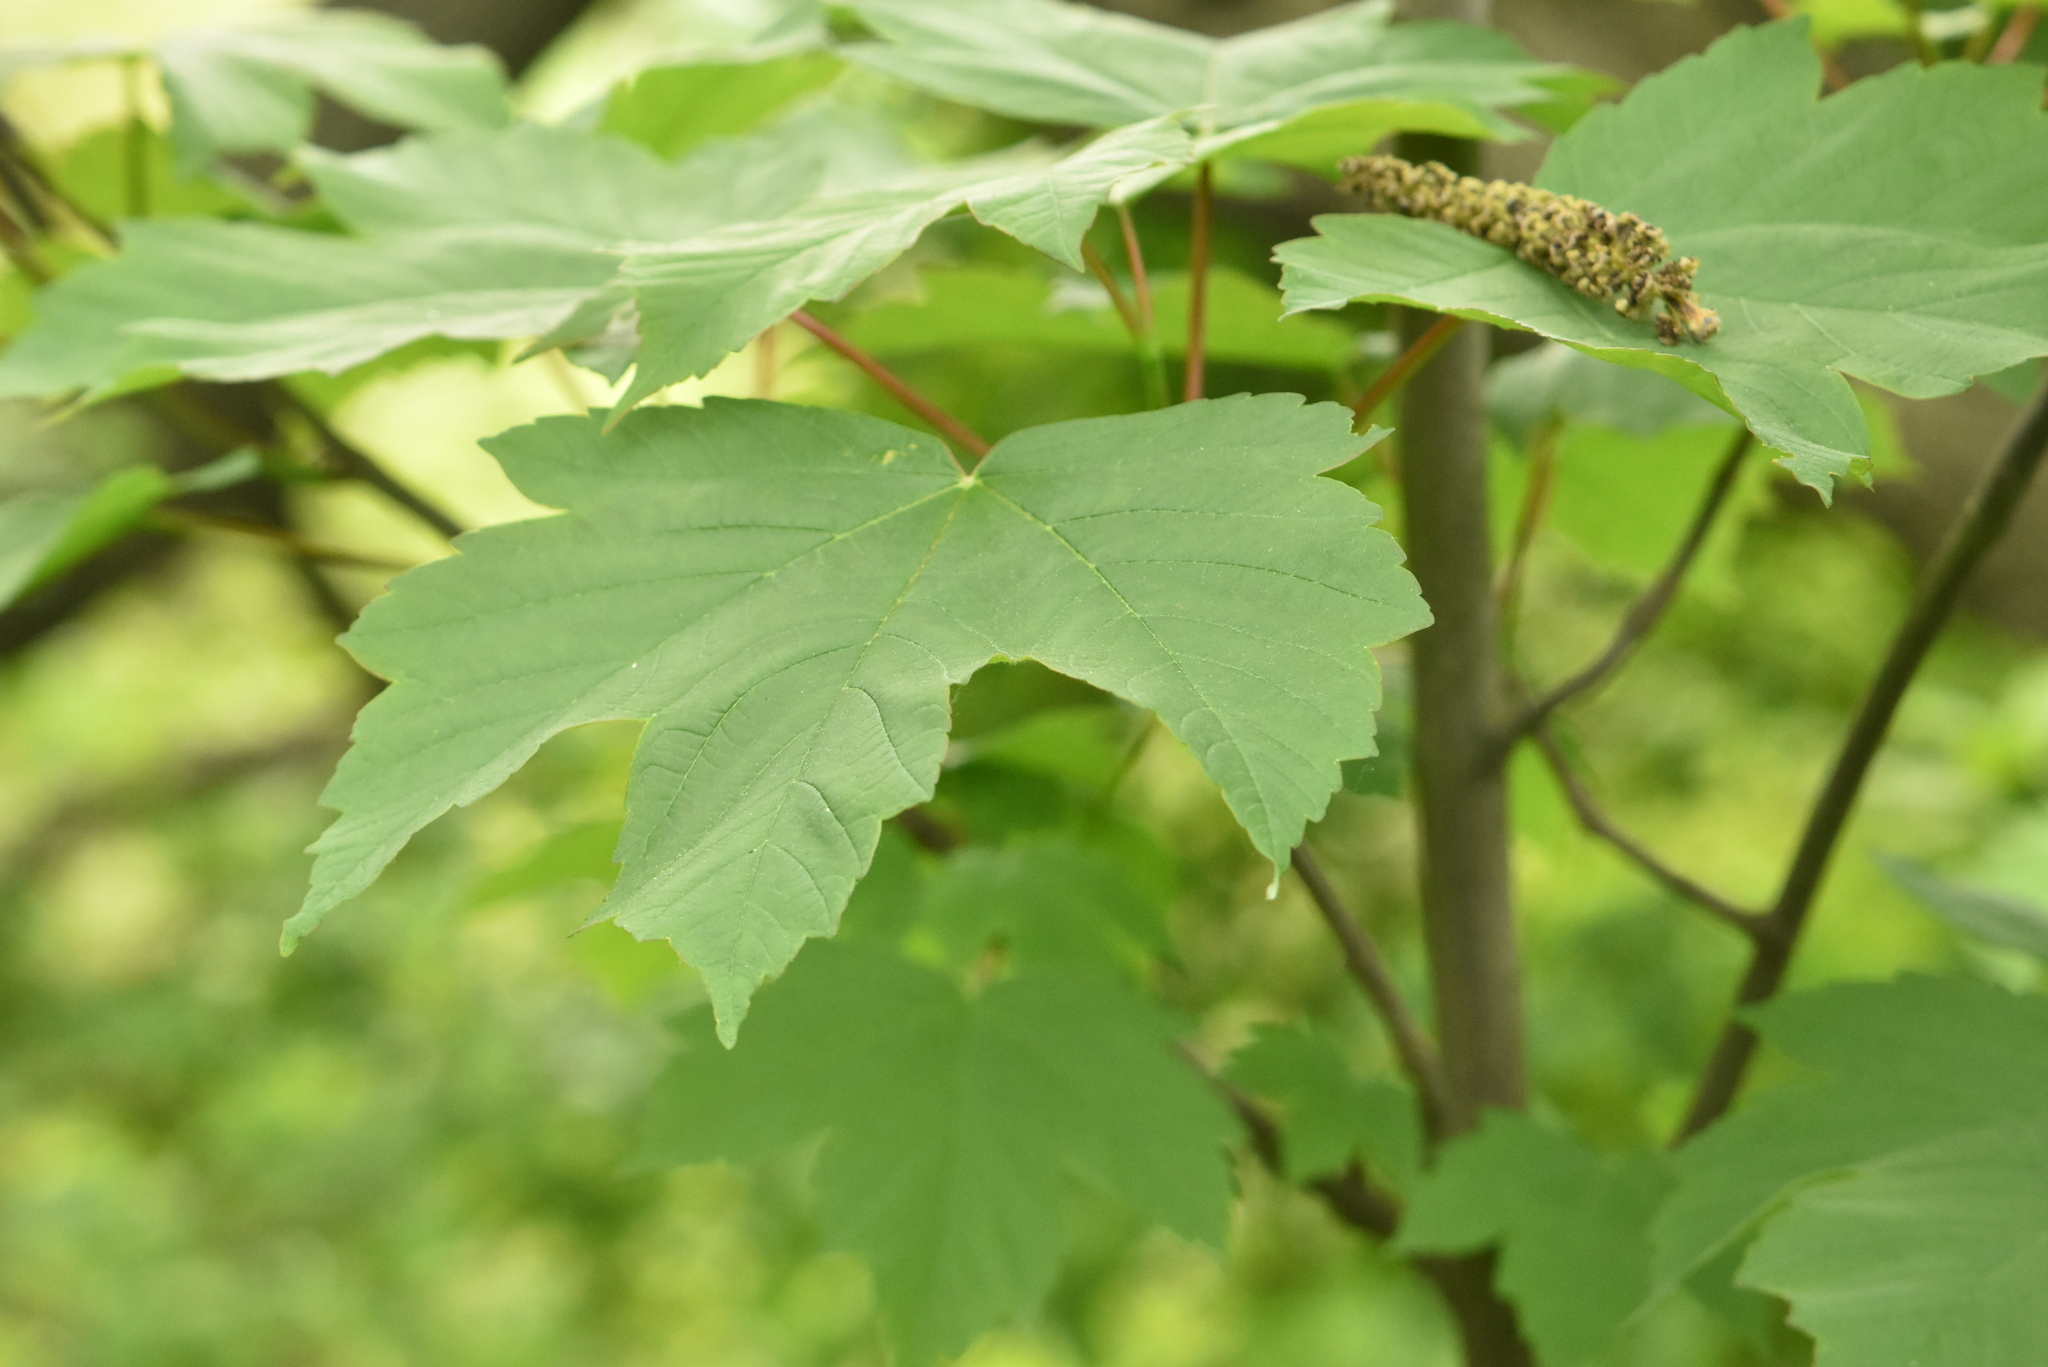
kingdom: Plantae
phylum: Tracheophyta
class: Magnoliopsida
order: Sapindales
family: Sapindaceae
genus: Acer
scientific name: Acer pseudoplatanus
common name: Sycamore
